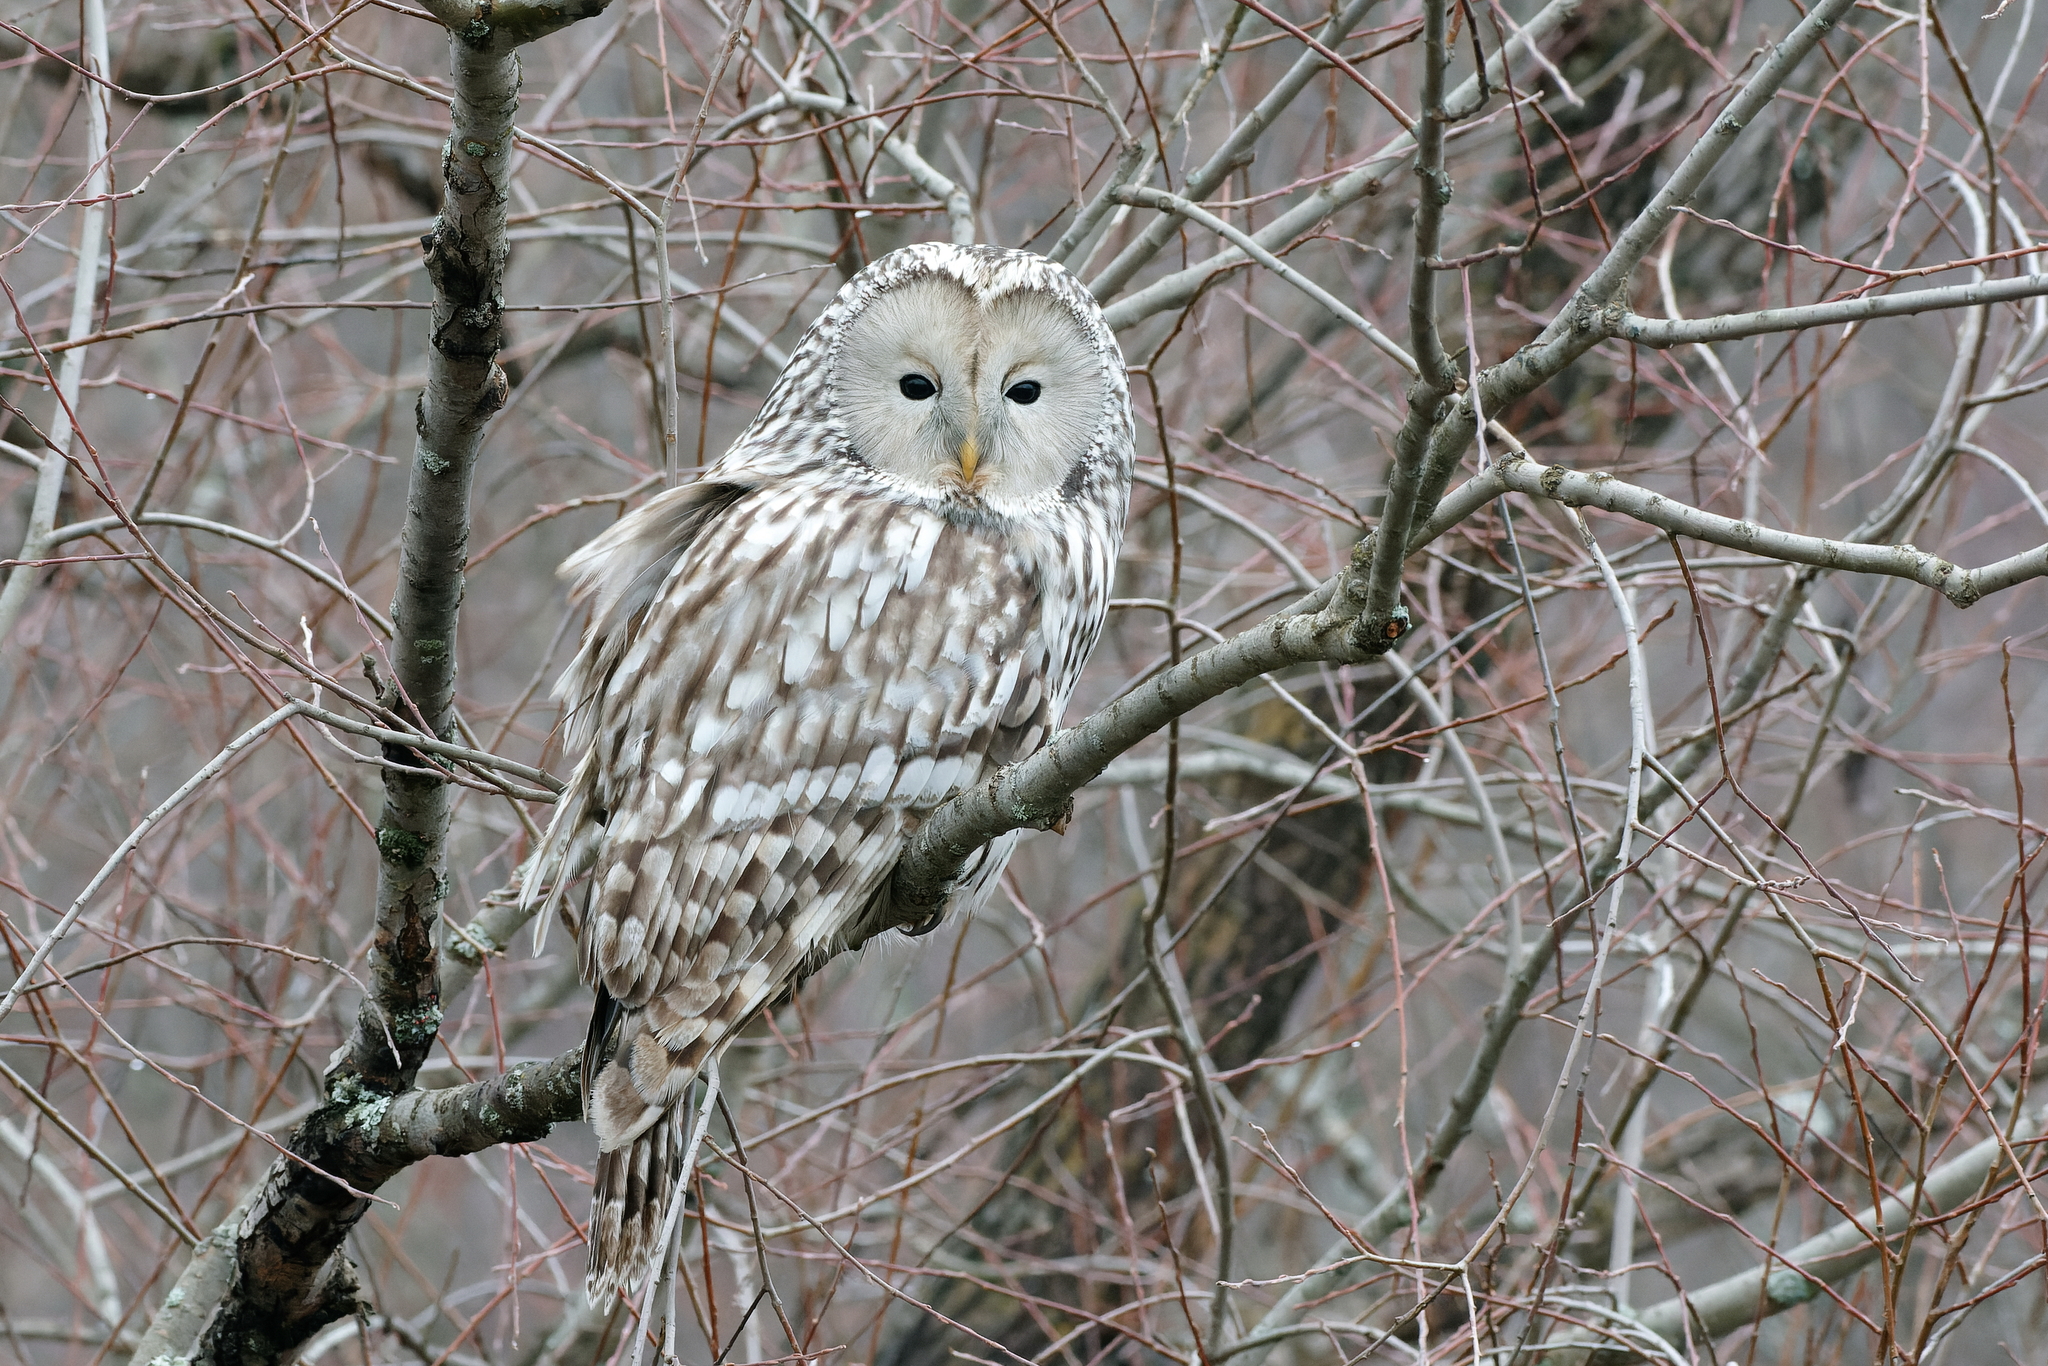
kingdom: Animalia
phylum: Chordata
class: Aves
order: Strigiformes
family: Strigidae
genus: Strix
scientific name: Strix uralensis
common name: Ural owl
